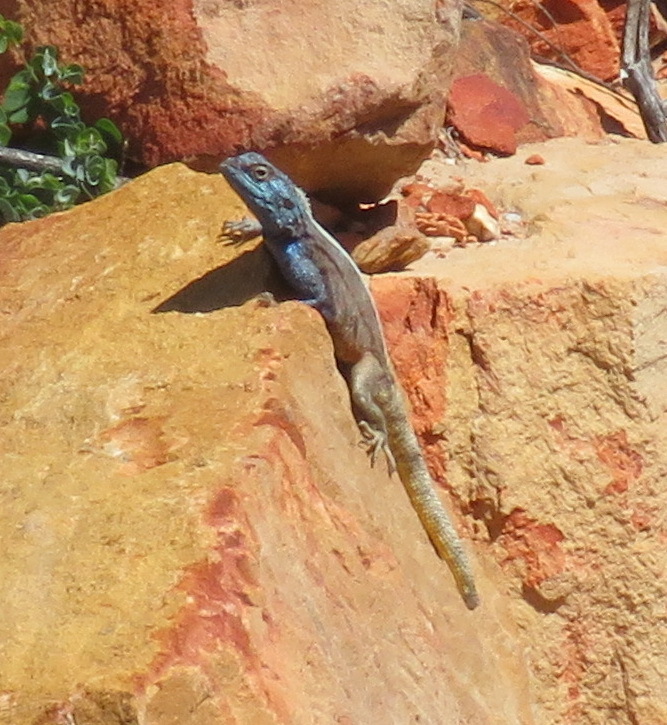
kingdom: Animalia
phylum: Chordata
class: Squamata
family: Agamidae
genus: Agama
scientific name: Agama atra
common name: Southern african rock agama
